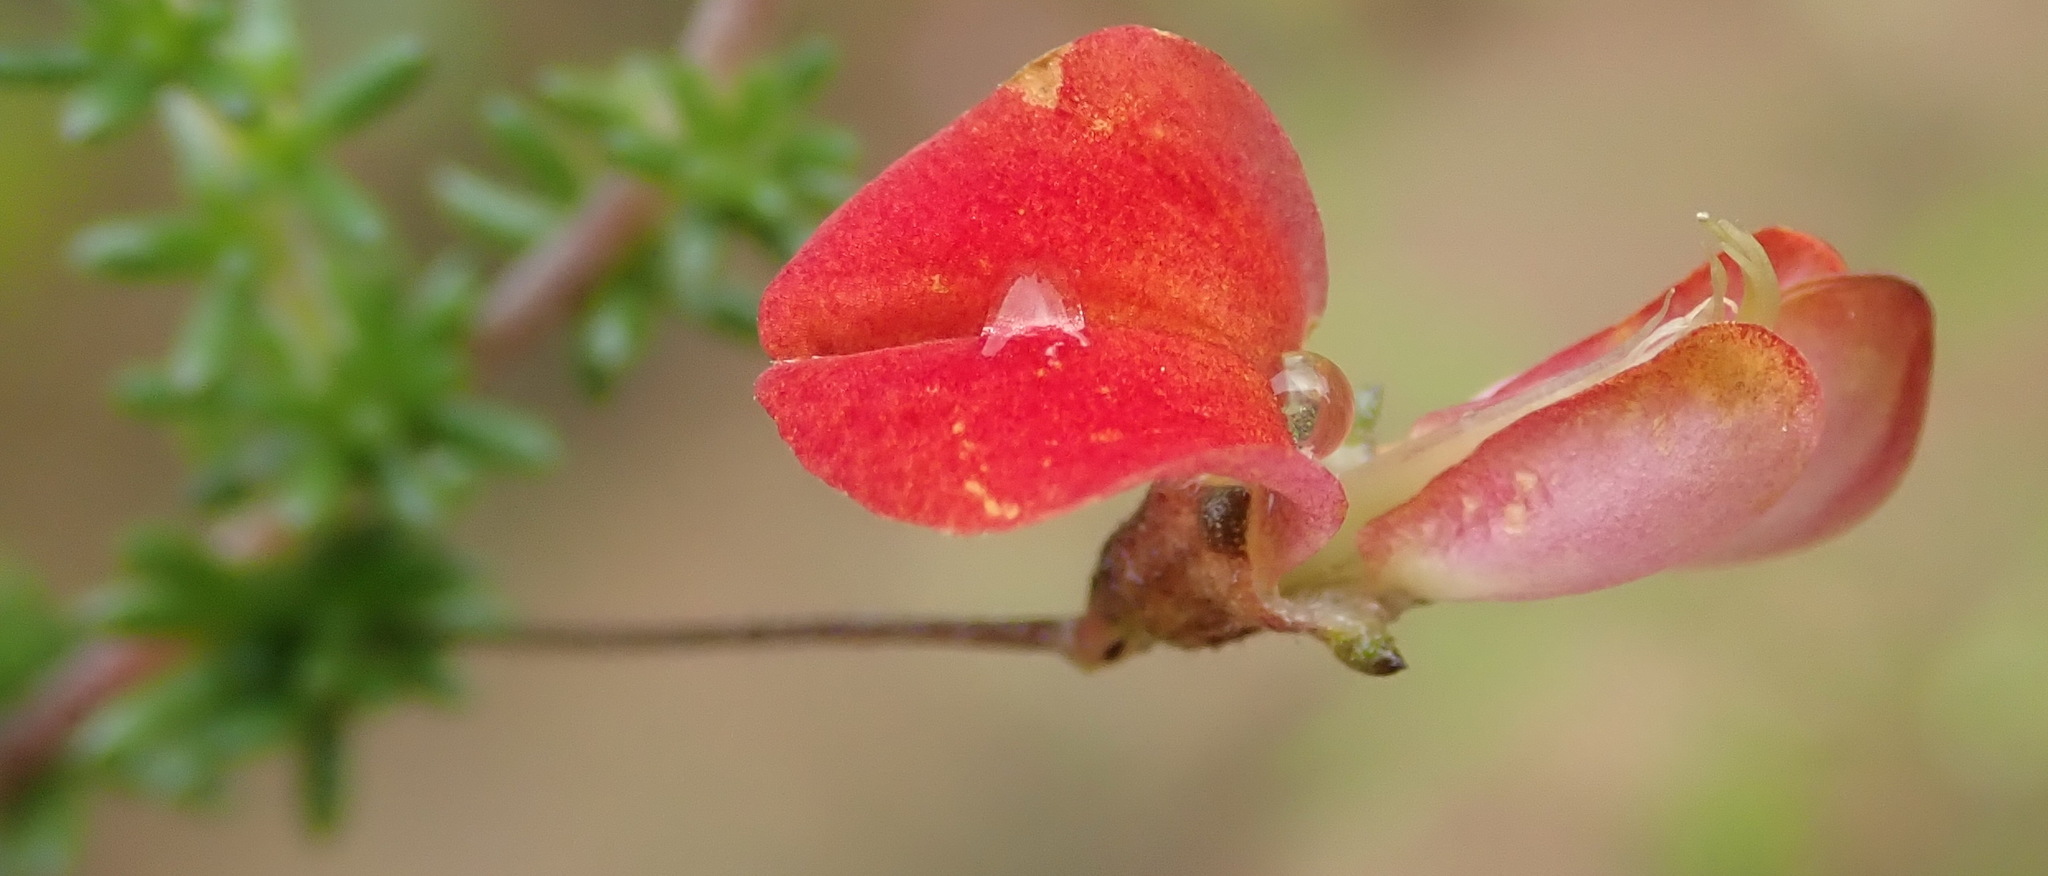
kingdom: Plantae
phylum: Tracheophyta
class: Magnoliopsida
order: Fabales
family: Fabaceae
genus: Aspalathus
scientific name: Aspalathus tenuissima
